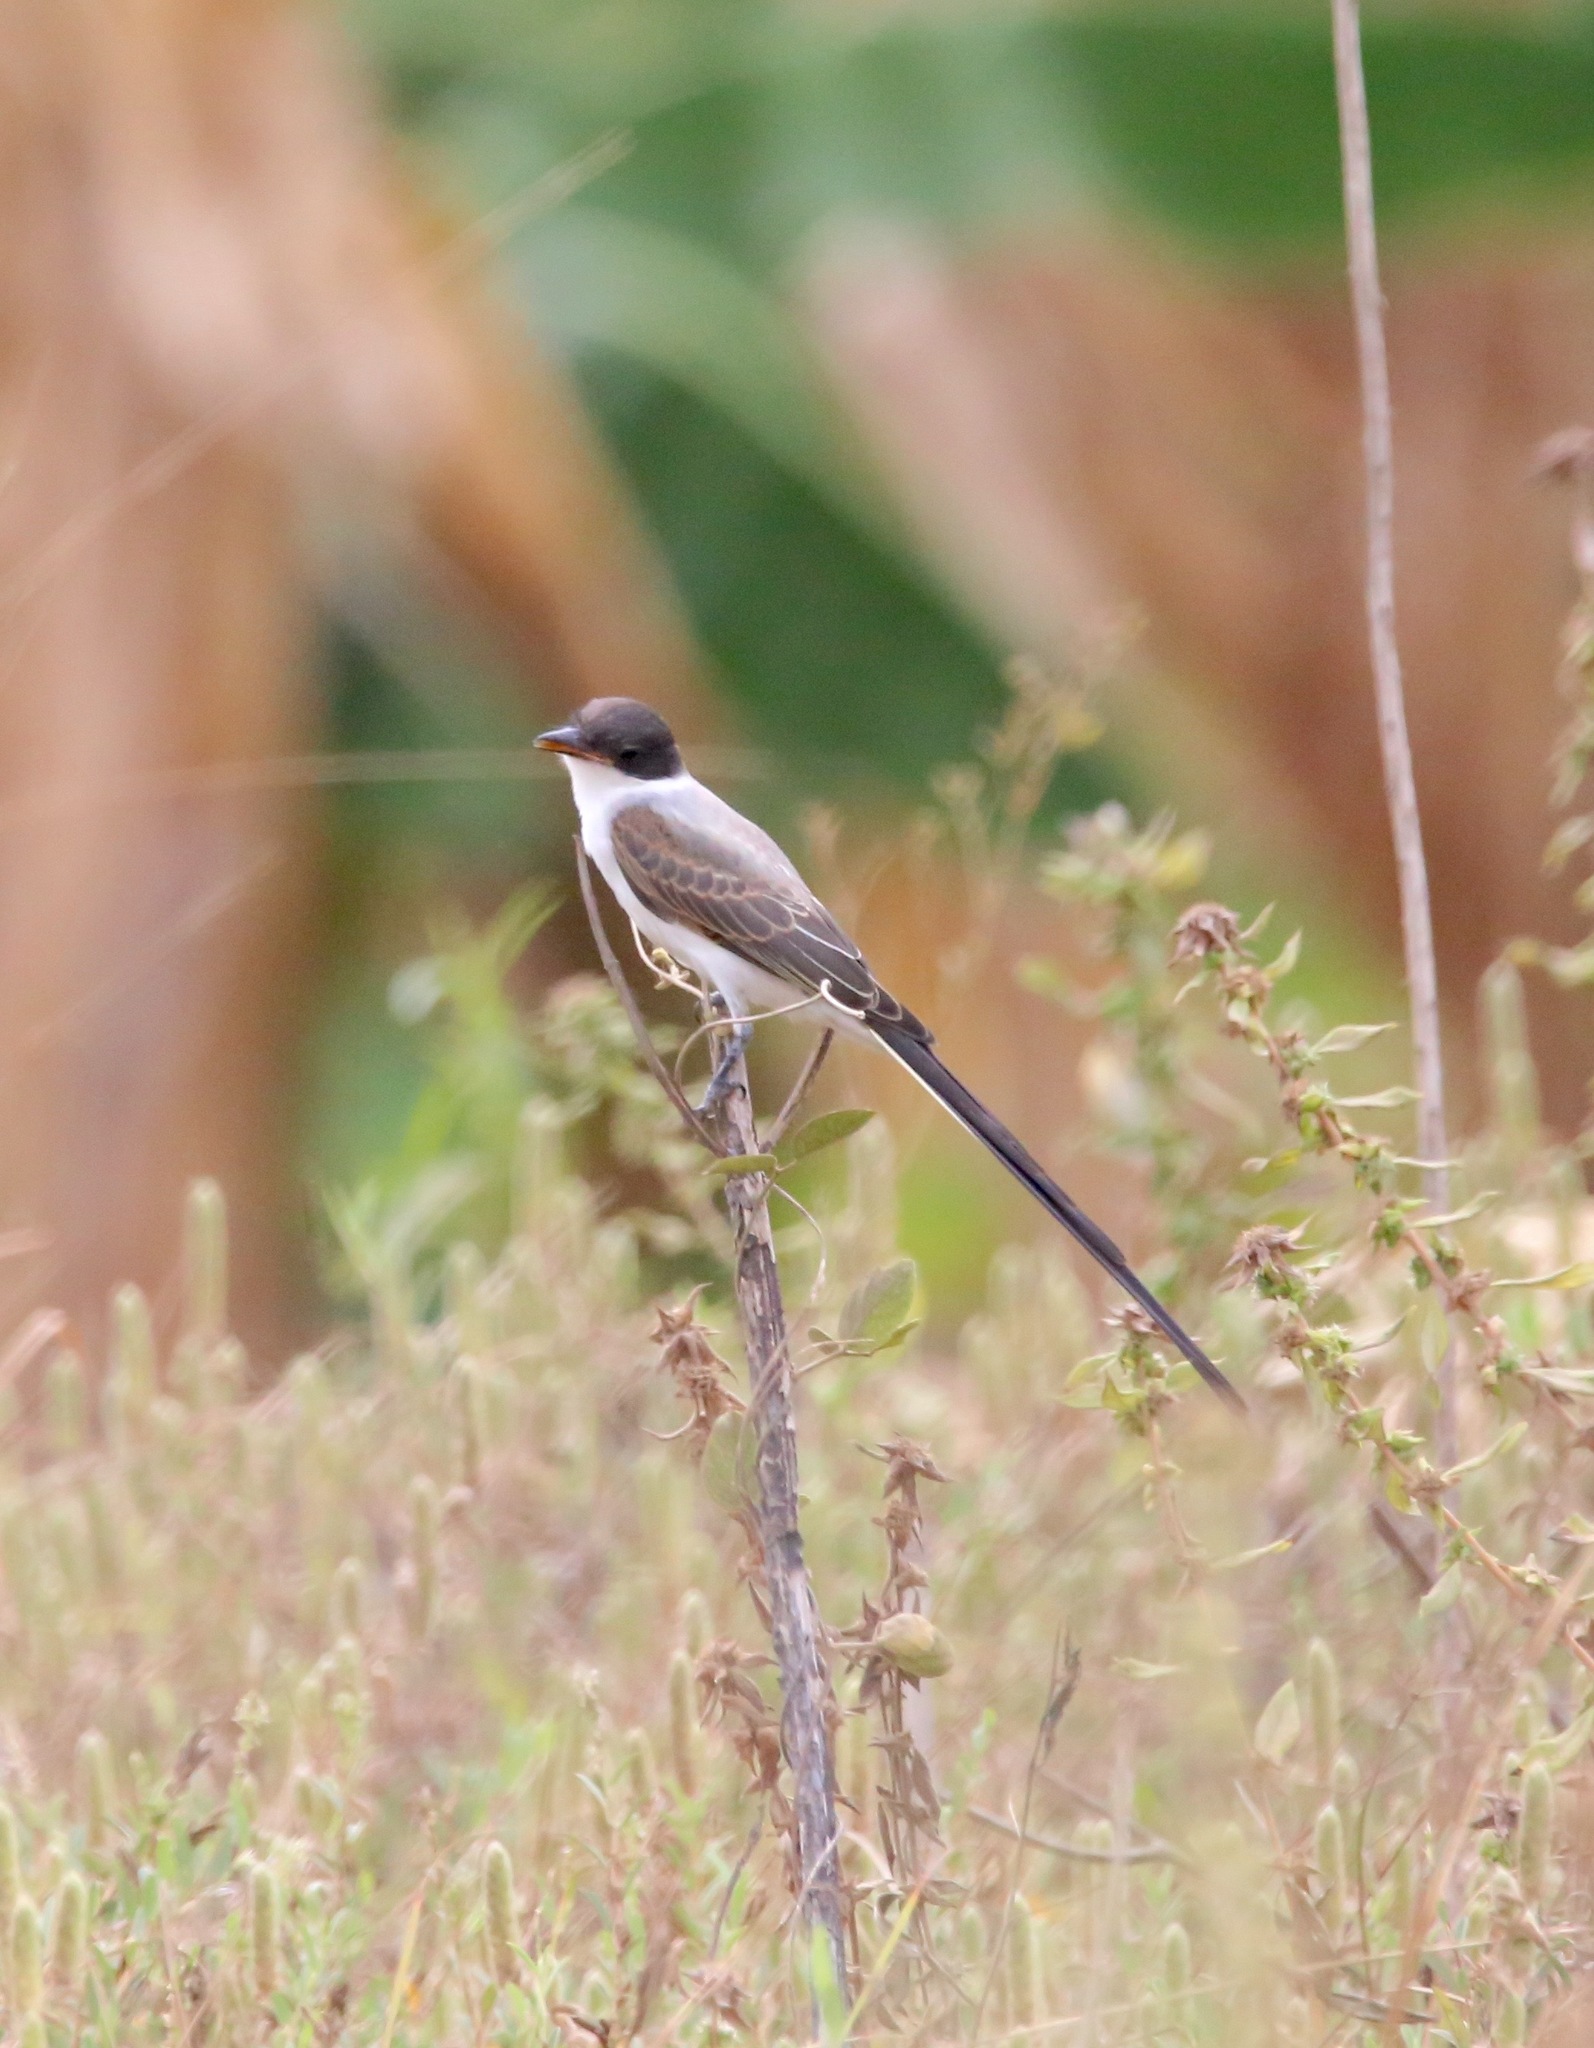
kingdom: Animalia
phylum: Chordata
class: Aves
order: Passeriformes
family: Tyrannidae
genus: Tyrannus
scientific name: Tyrannus savana
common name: Fork-tailed flycatcher
